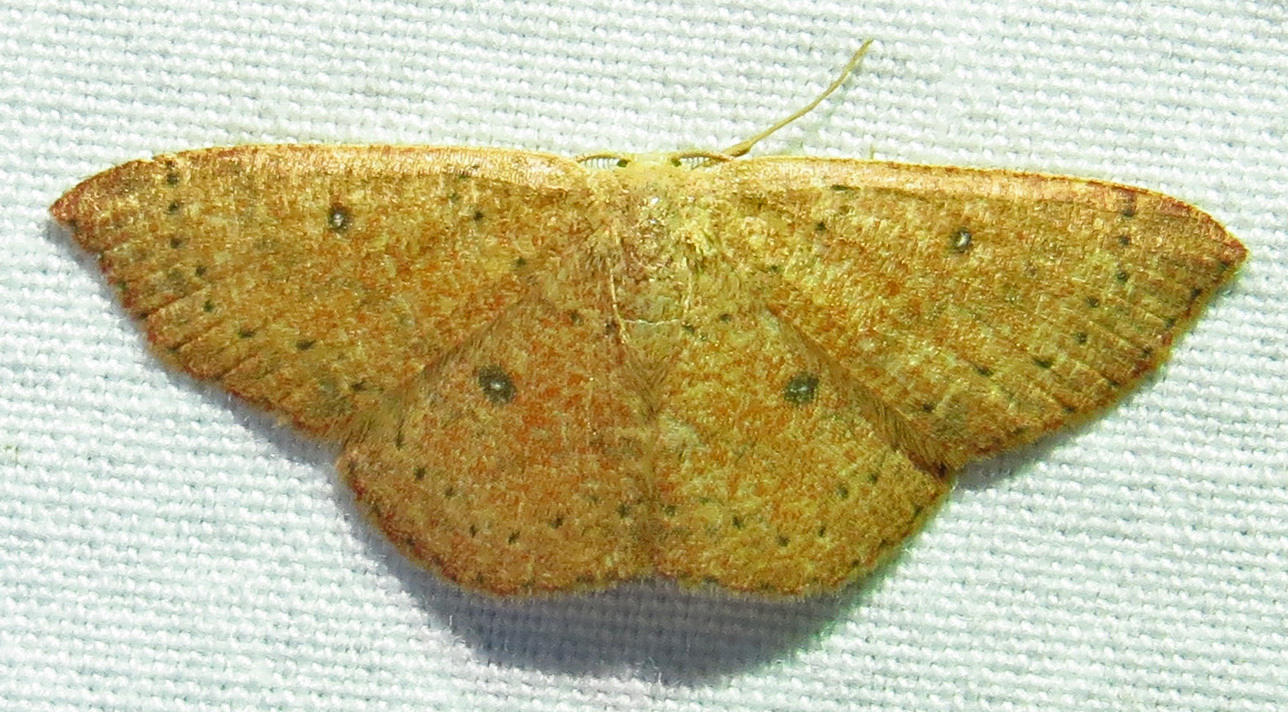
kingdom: Animalia
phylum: Arthropoda
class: Insecta
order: Lepidoptera
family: Geometridae
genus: Cyclophora
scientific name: Cyclophora packardi
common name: Packard's wave
